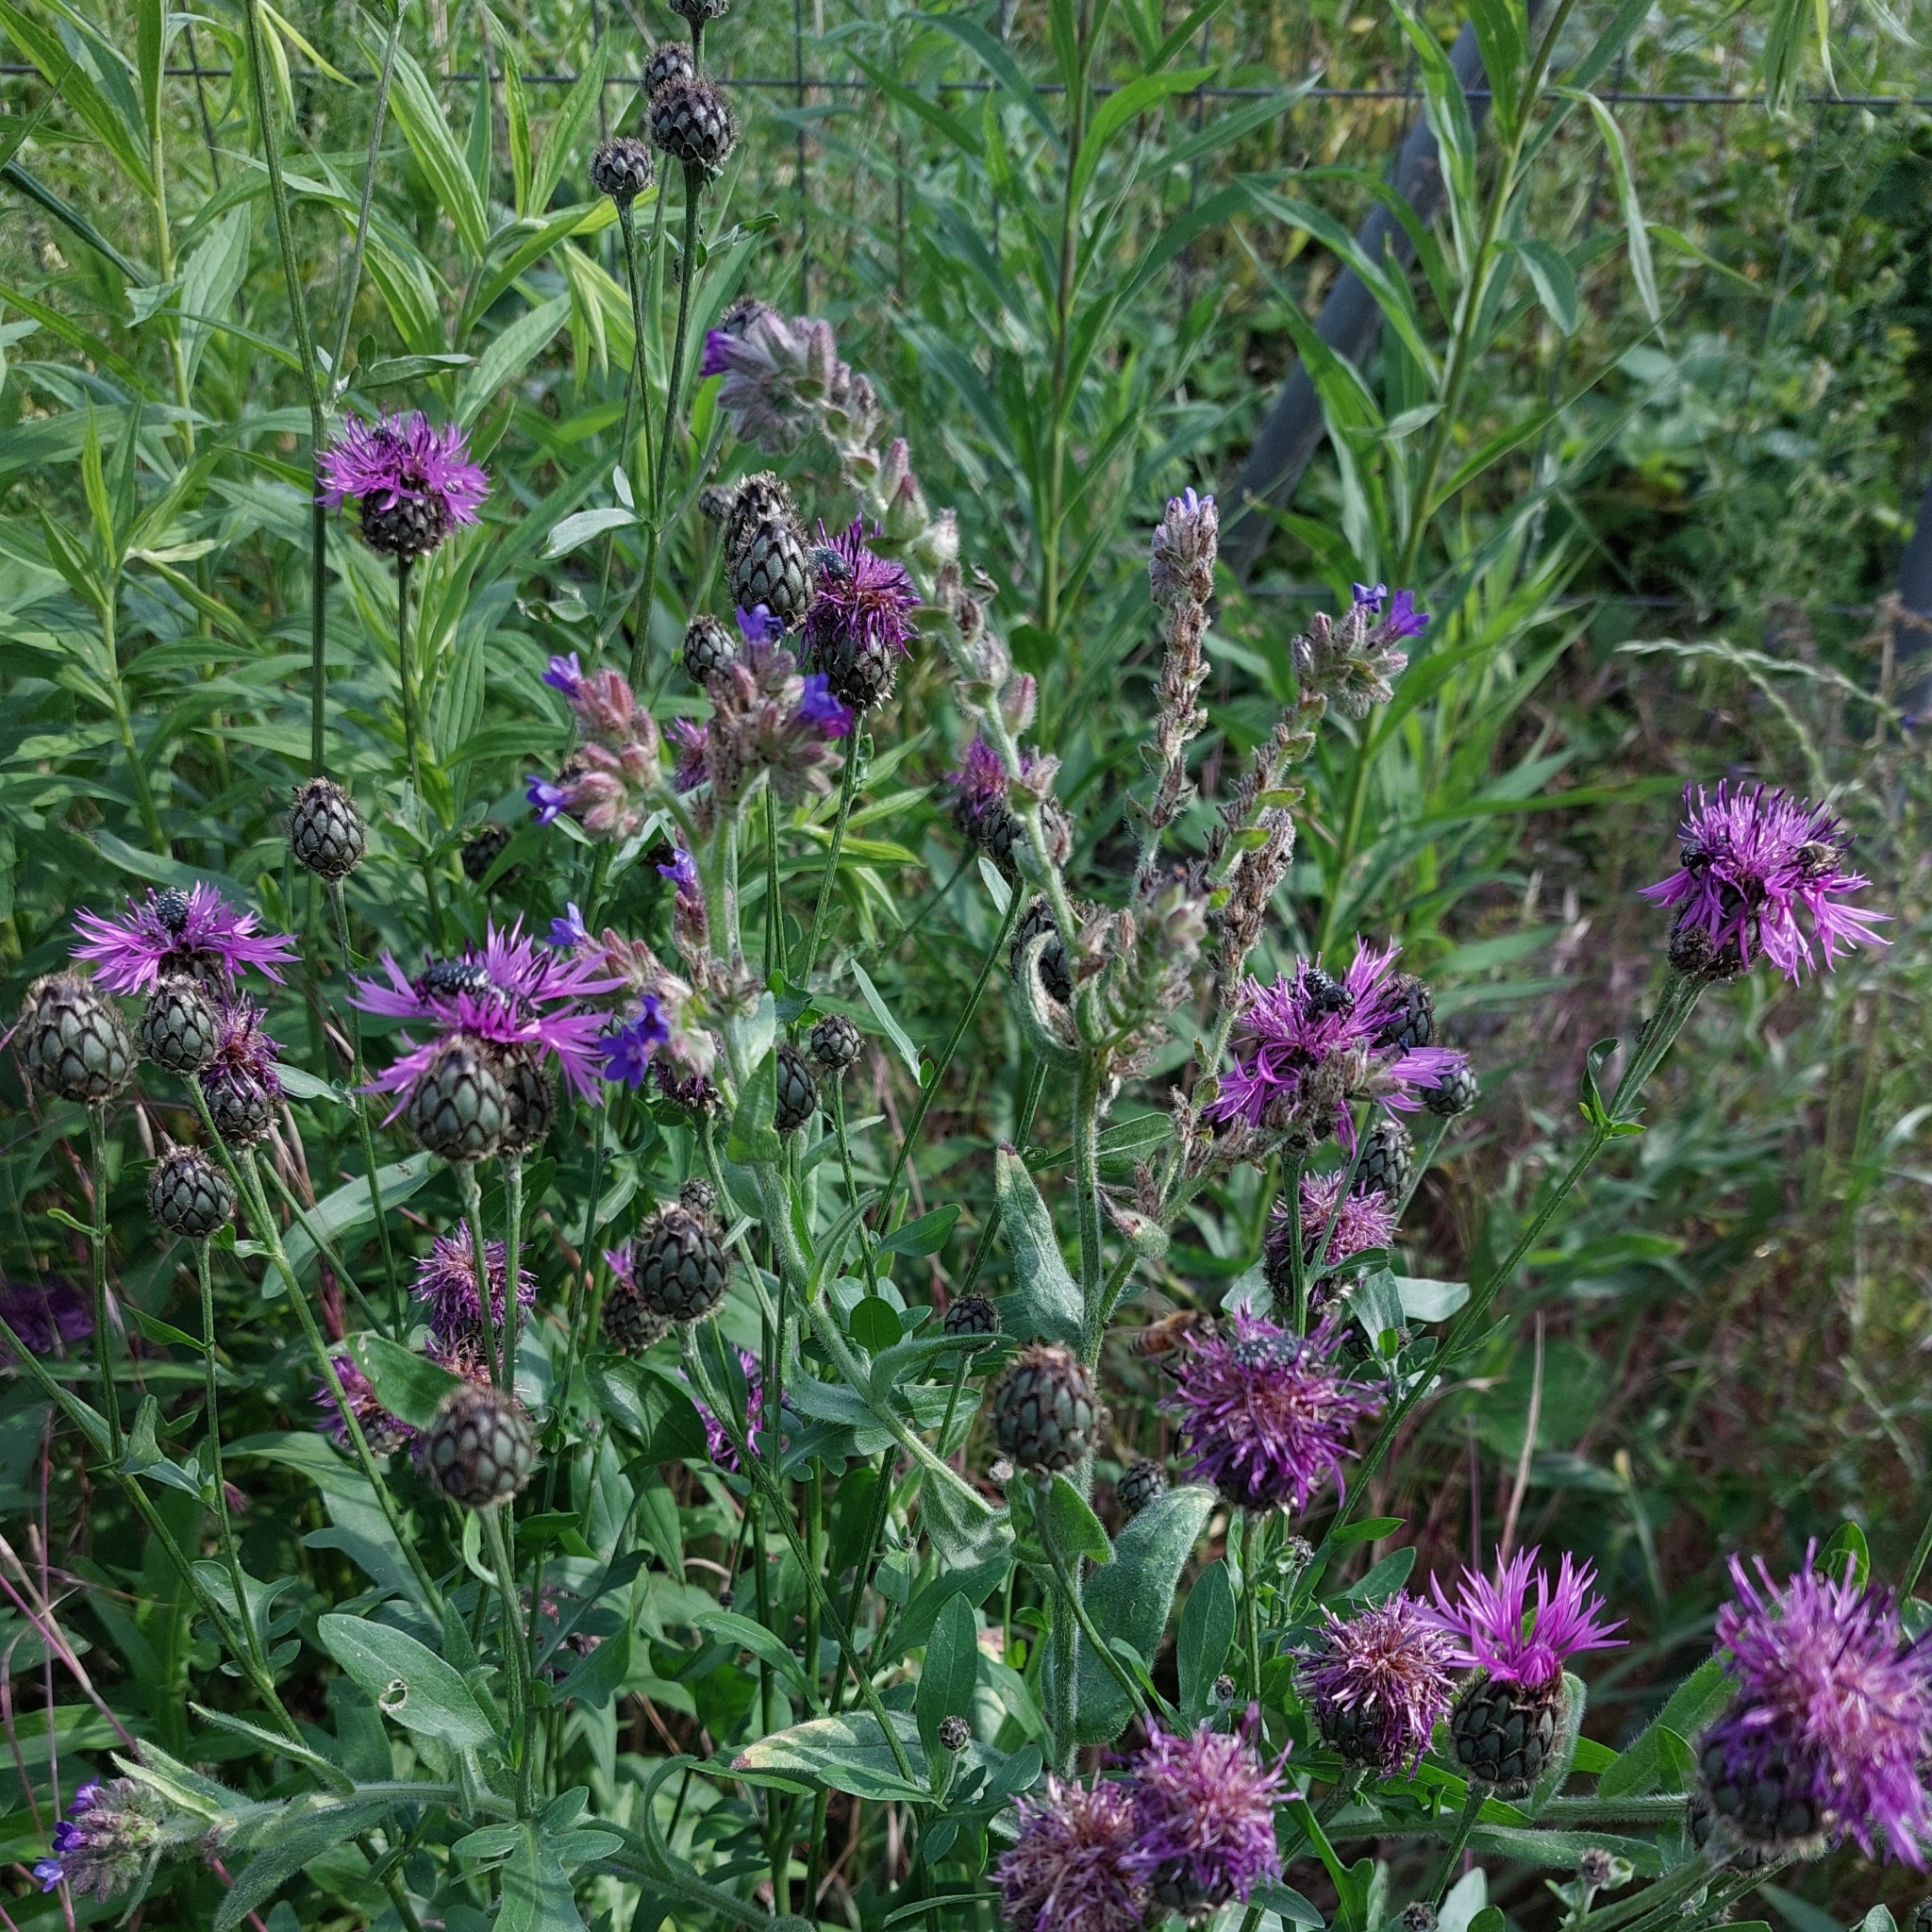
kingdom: Plantae
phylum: Tracheophyta
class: Magnoliopsida
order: Asterales
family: Asteraceae
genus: Centaurea
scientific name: Centaurea scabiosa
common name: Greater knapweed
